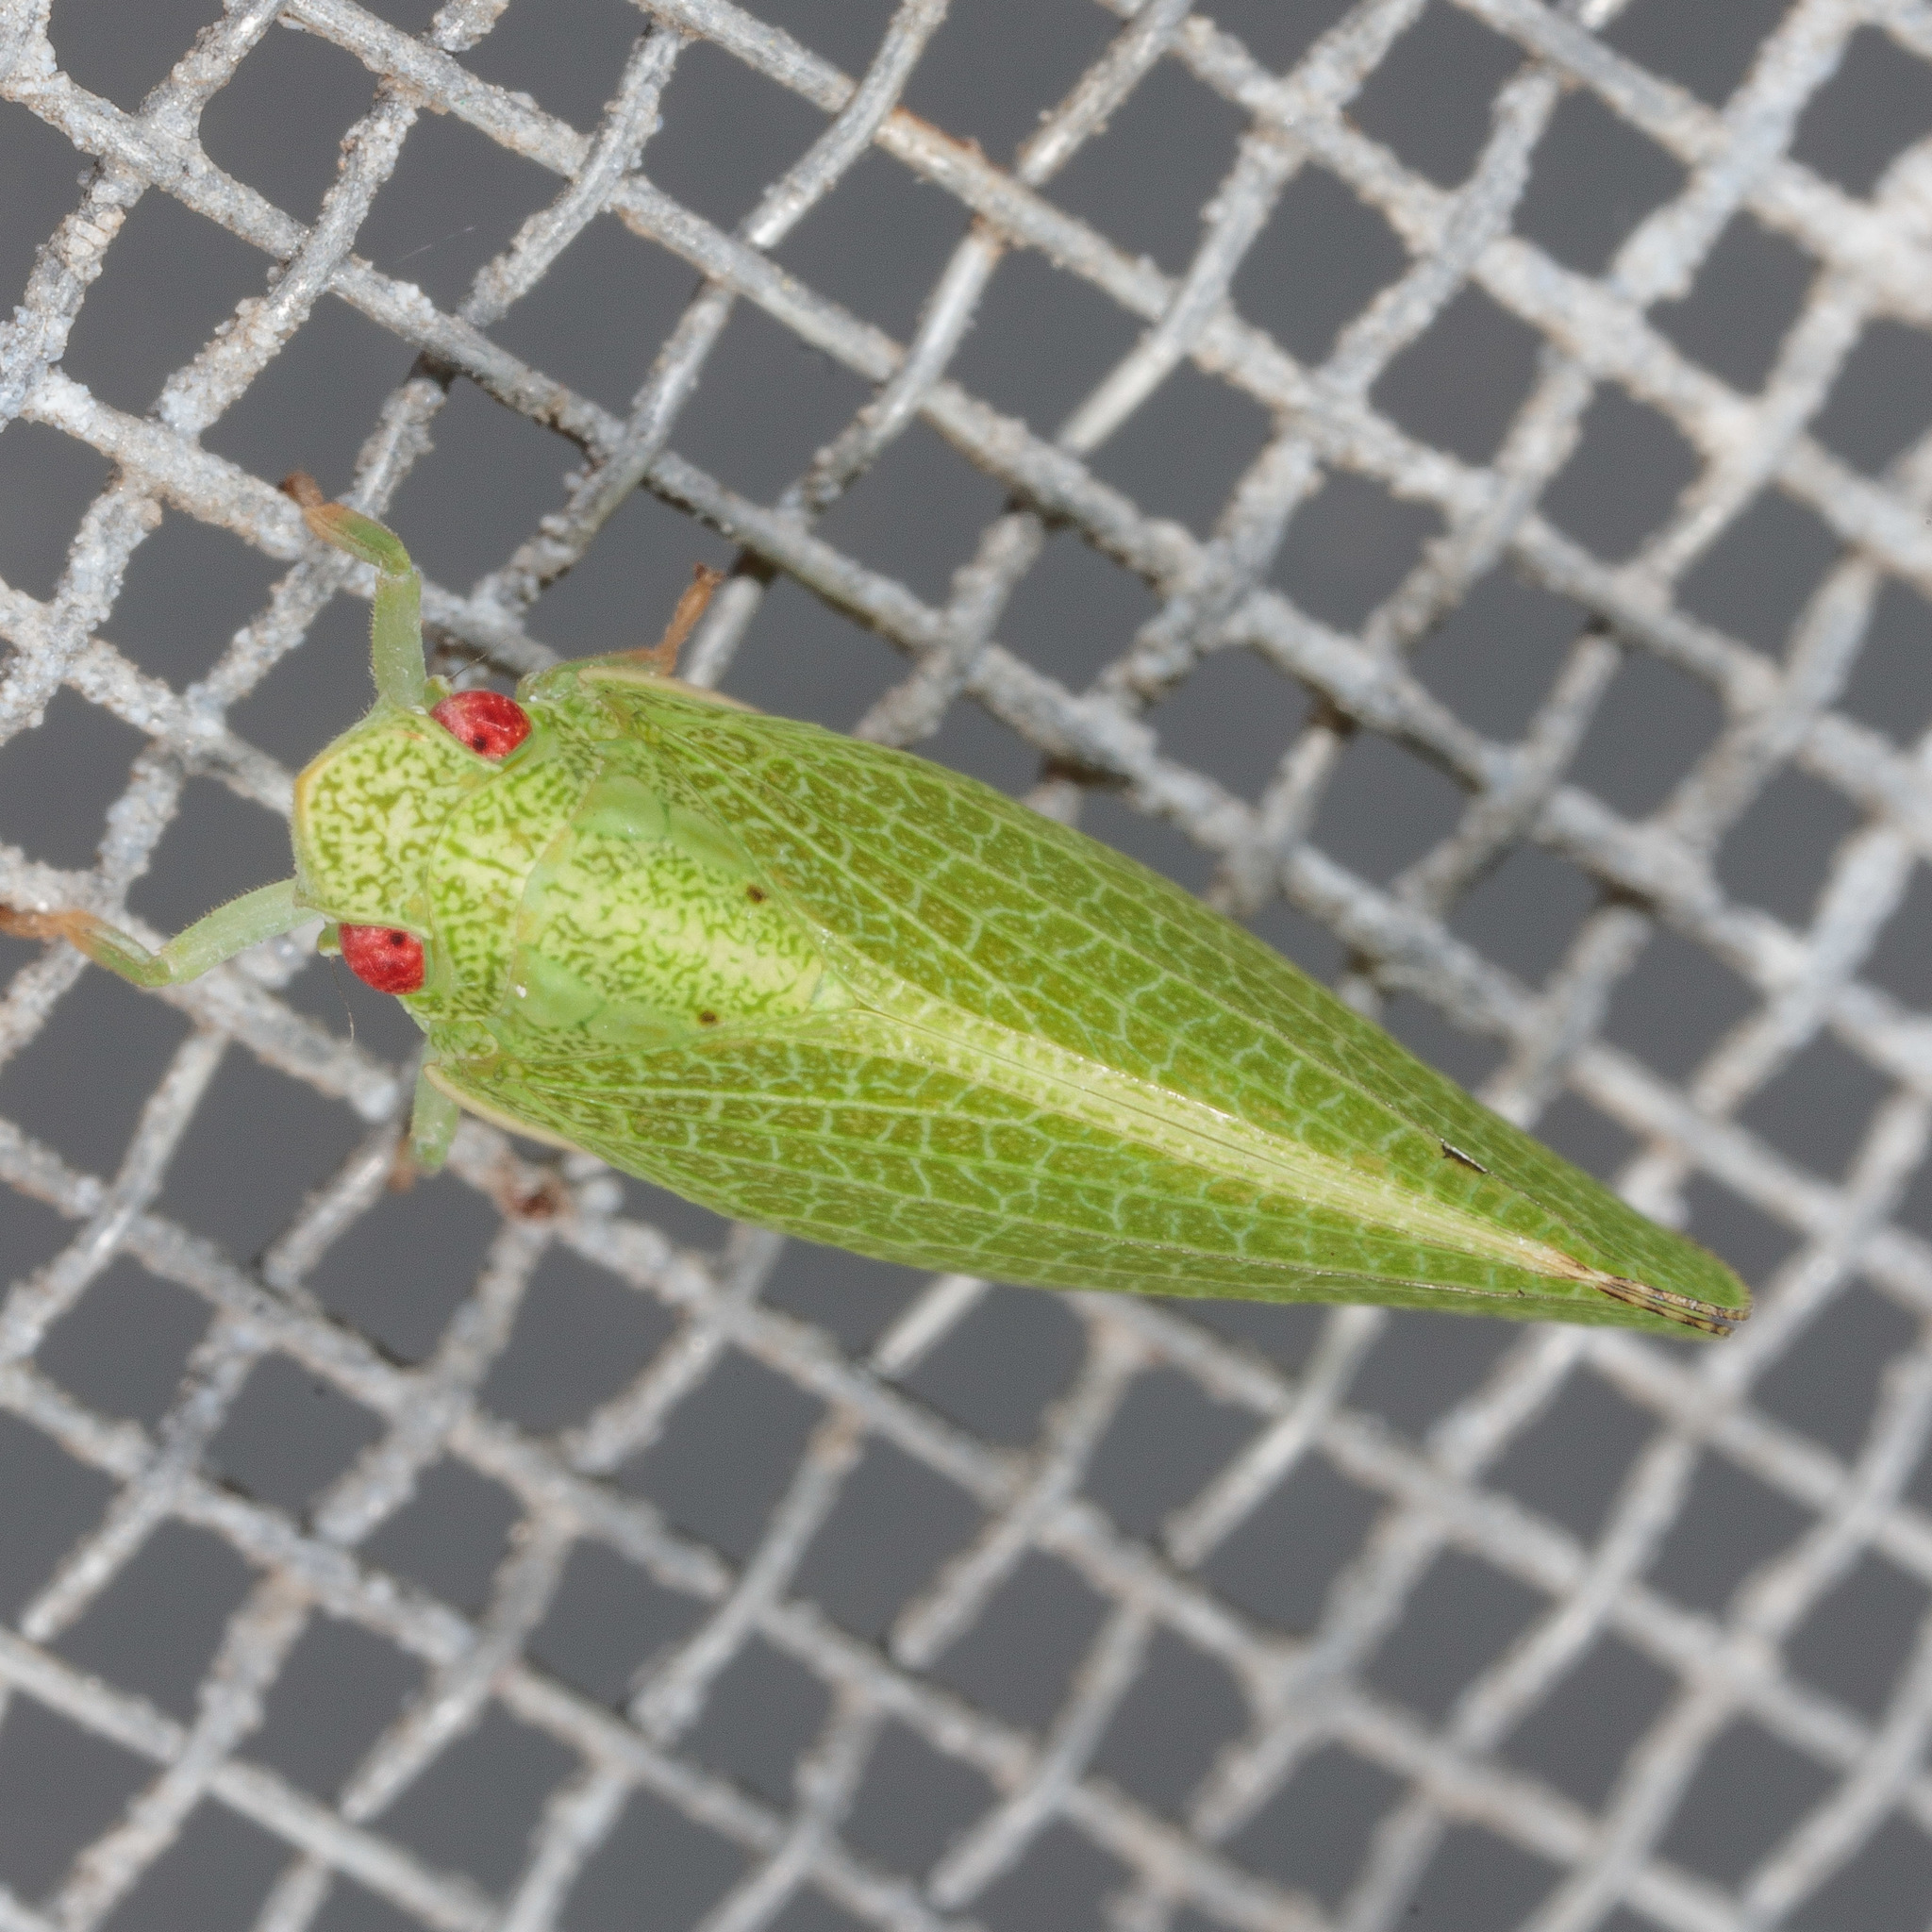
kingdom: Animalia
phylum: Arthropoda
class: Insecta
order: Hemiptera
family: Acanaloniidae
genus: Acanalonia
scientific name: Acanalonia conica
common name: Green cone-headed planthopper
